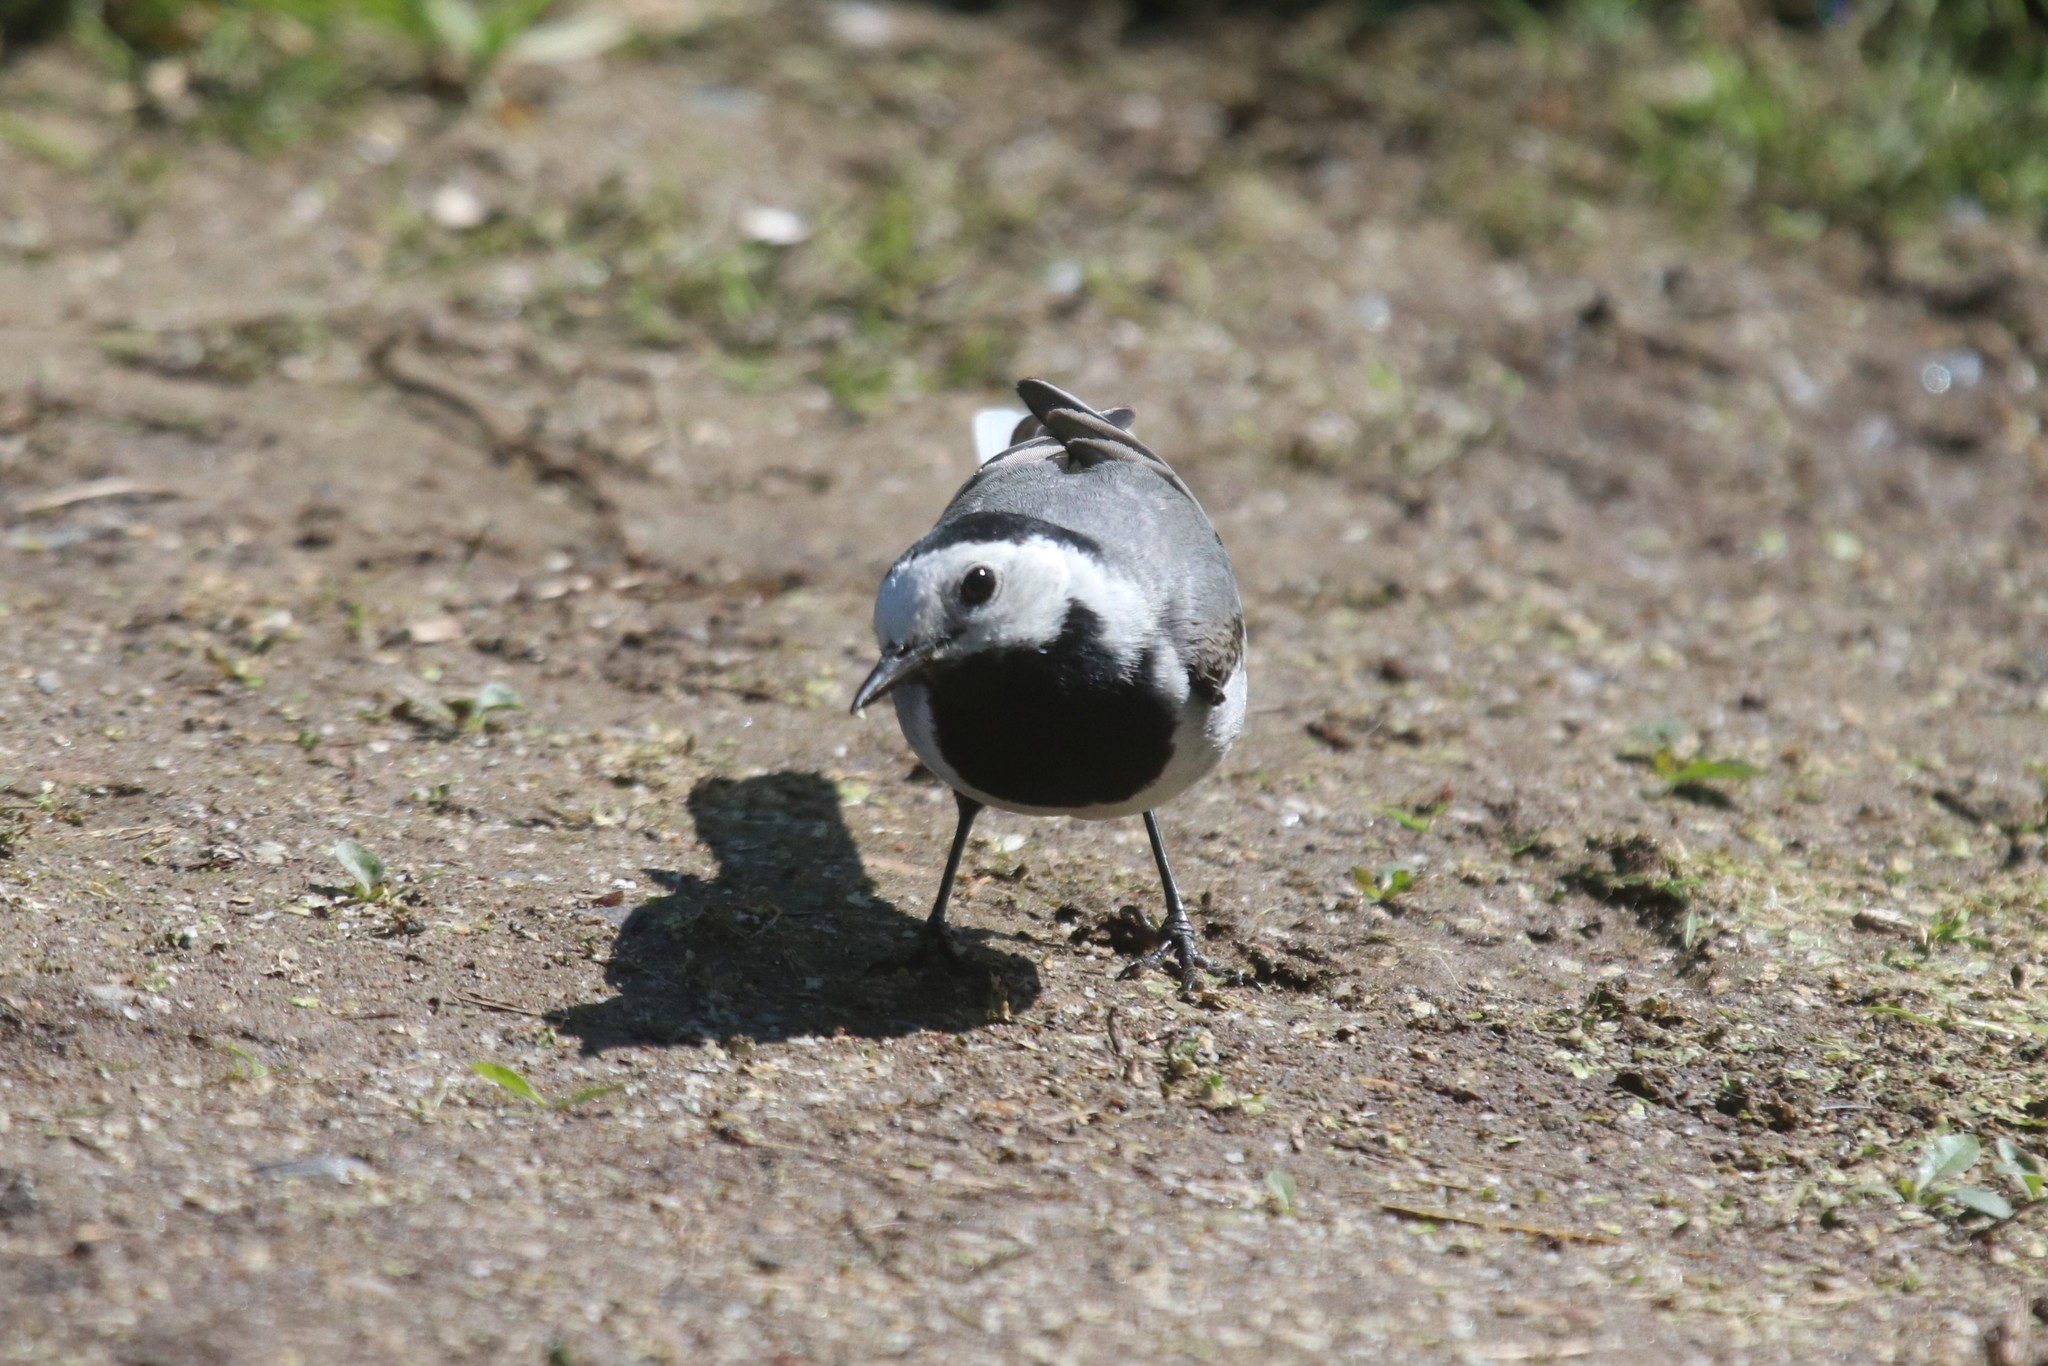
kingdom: Animalia
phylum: Chordata
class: Aves
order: Passeriformes
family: Motacillidae
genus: Motacilla
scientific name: Motacilla alba
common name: White wagtail
